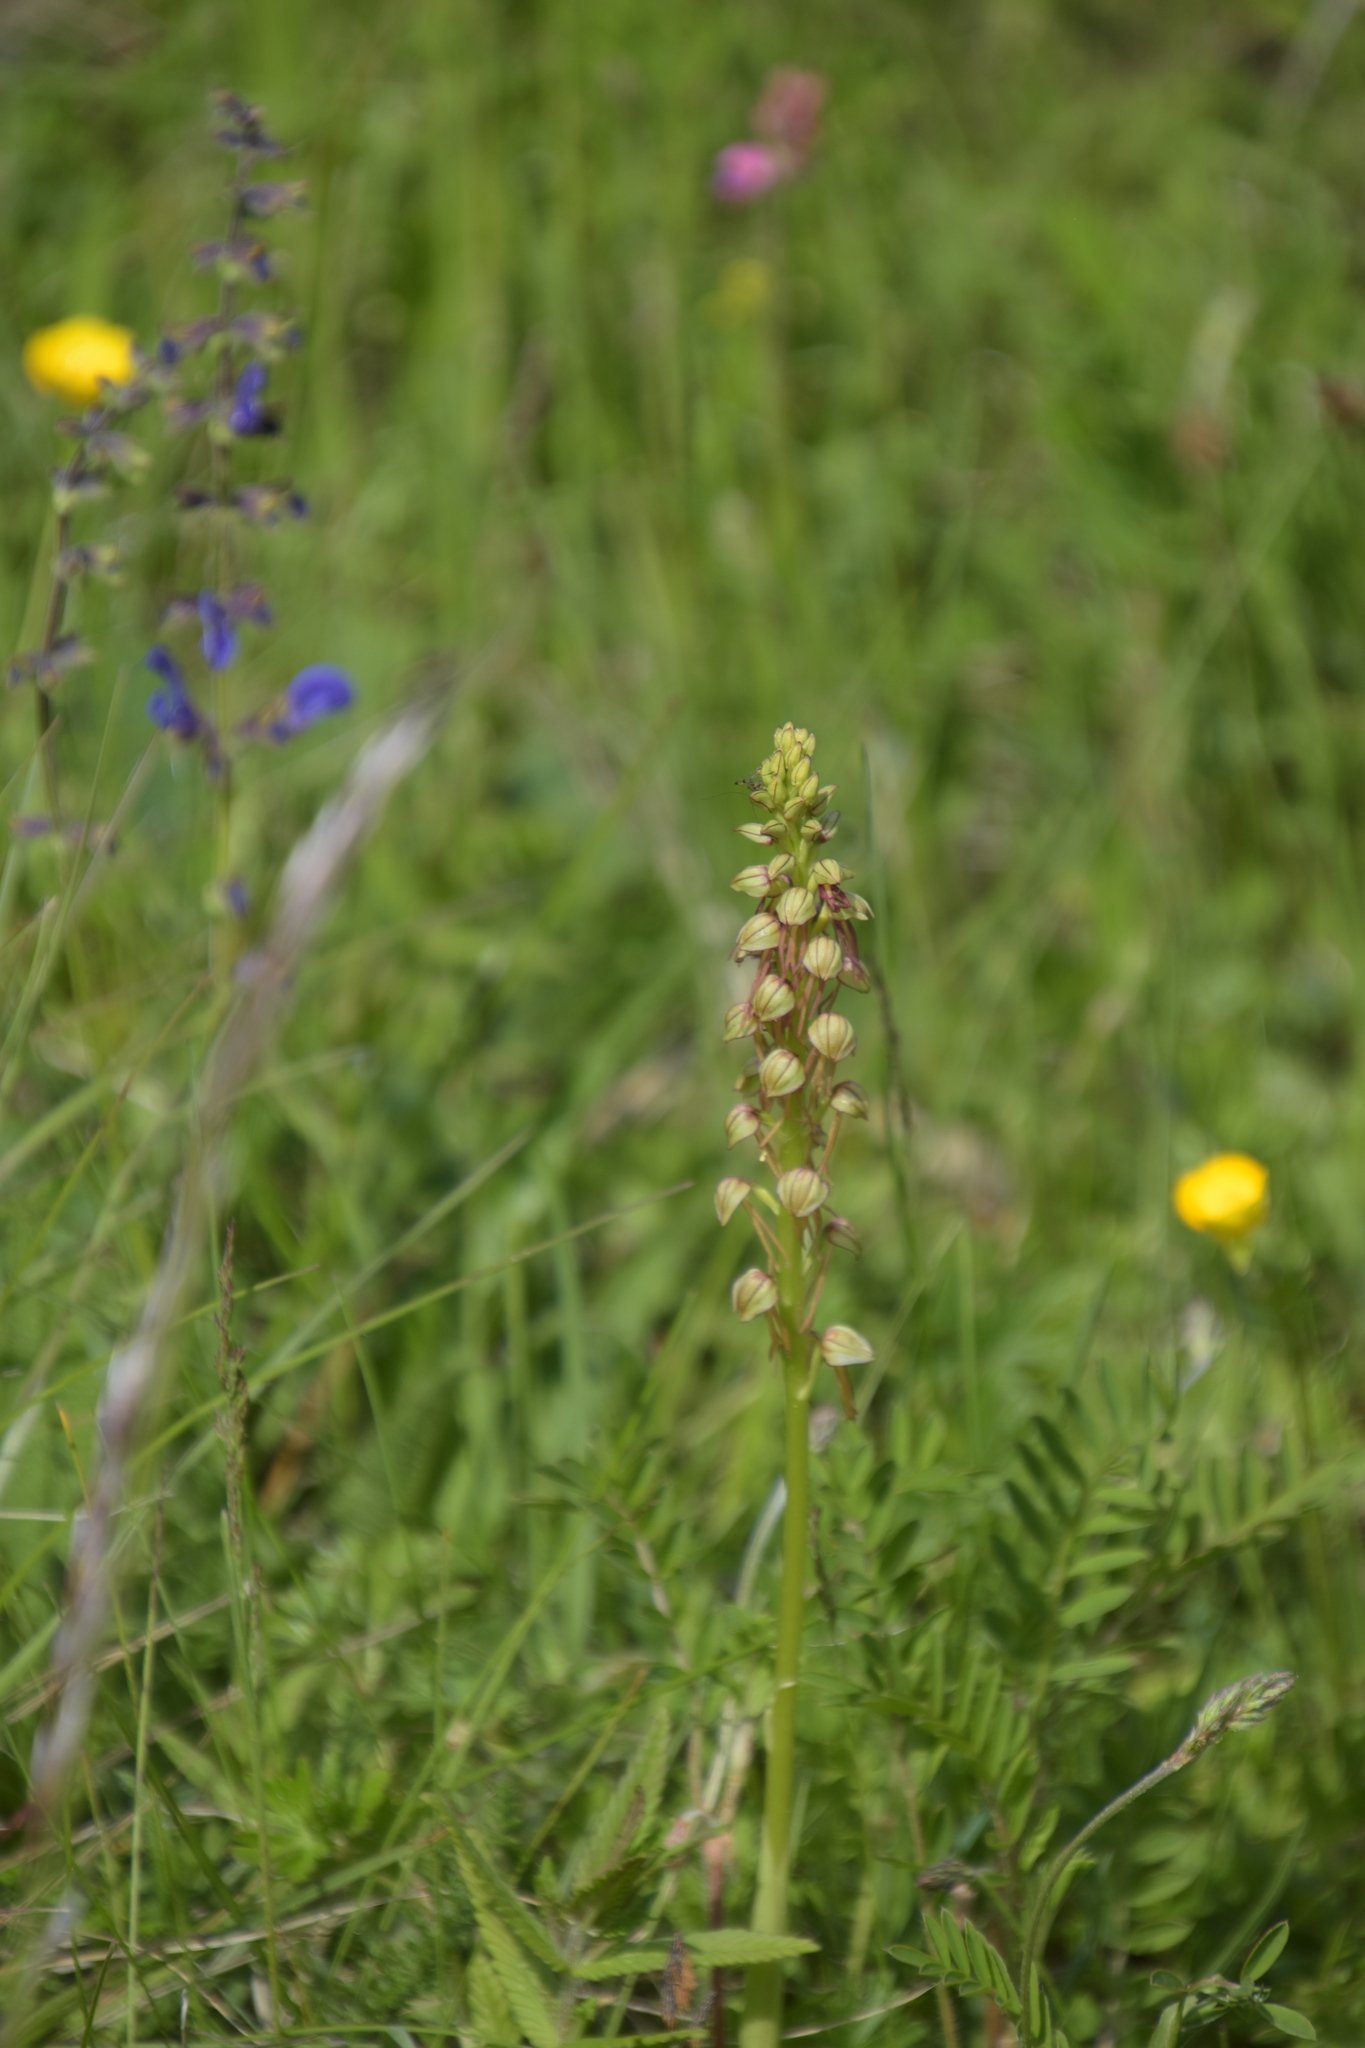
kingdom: Plantae
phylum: Tracheophyta
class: Liliopsida
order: Asparagales
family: Orchidaceae
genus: Orchis
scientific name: Orchis anthropophora
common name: Man orchid
